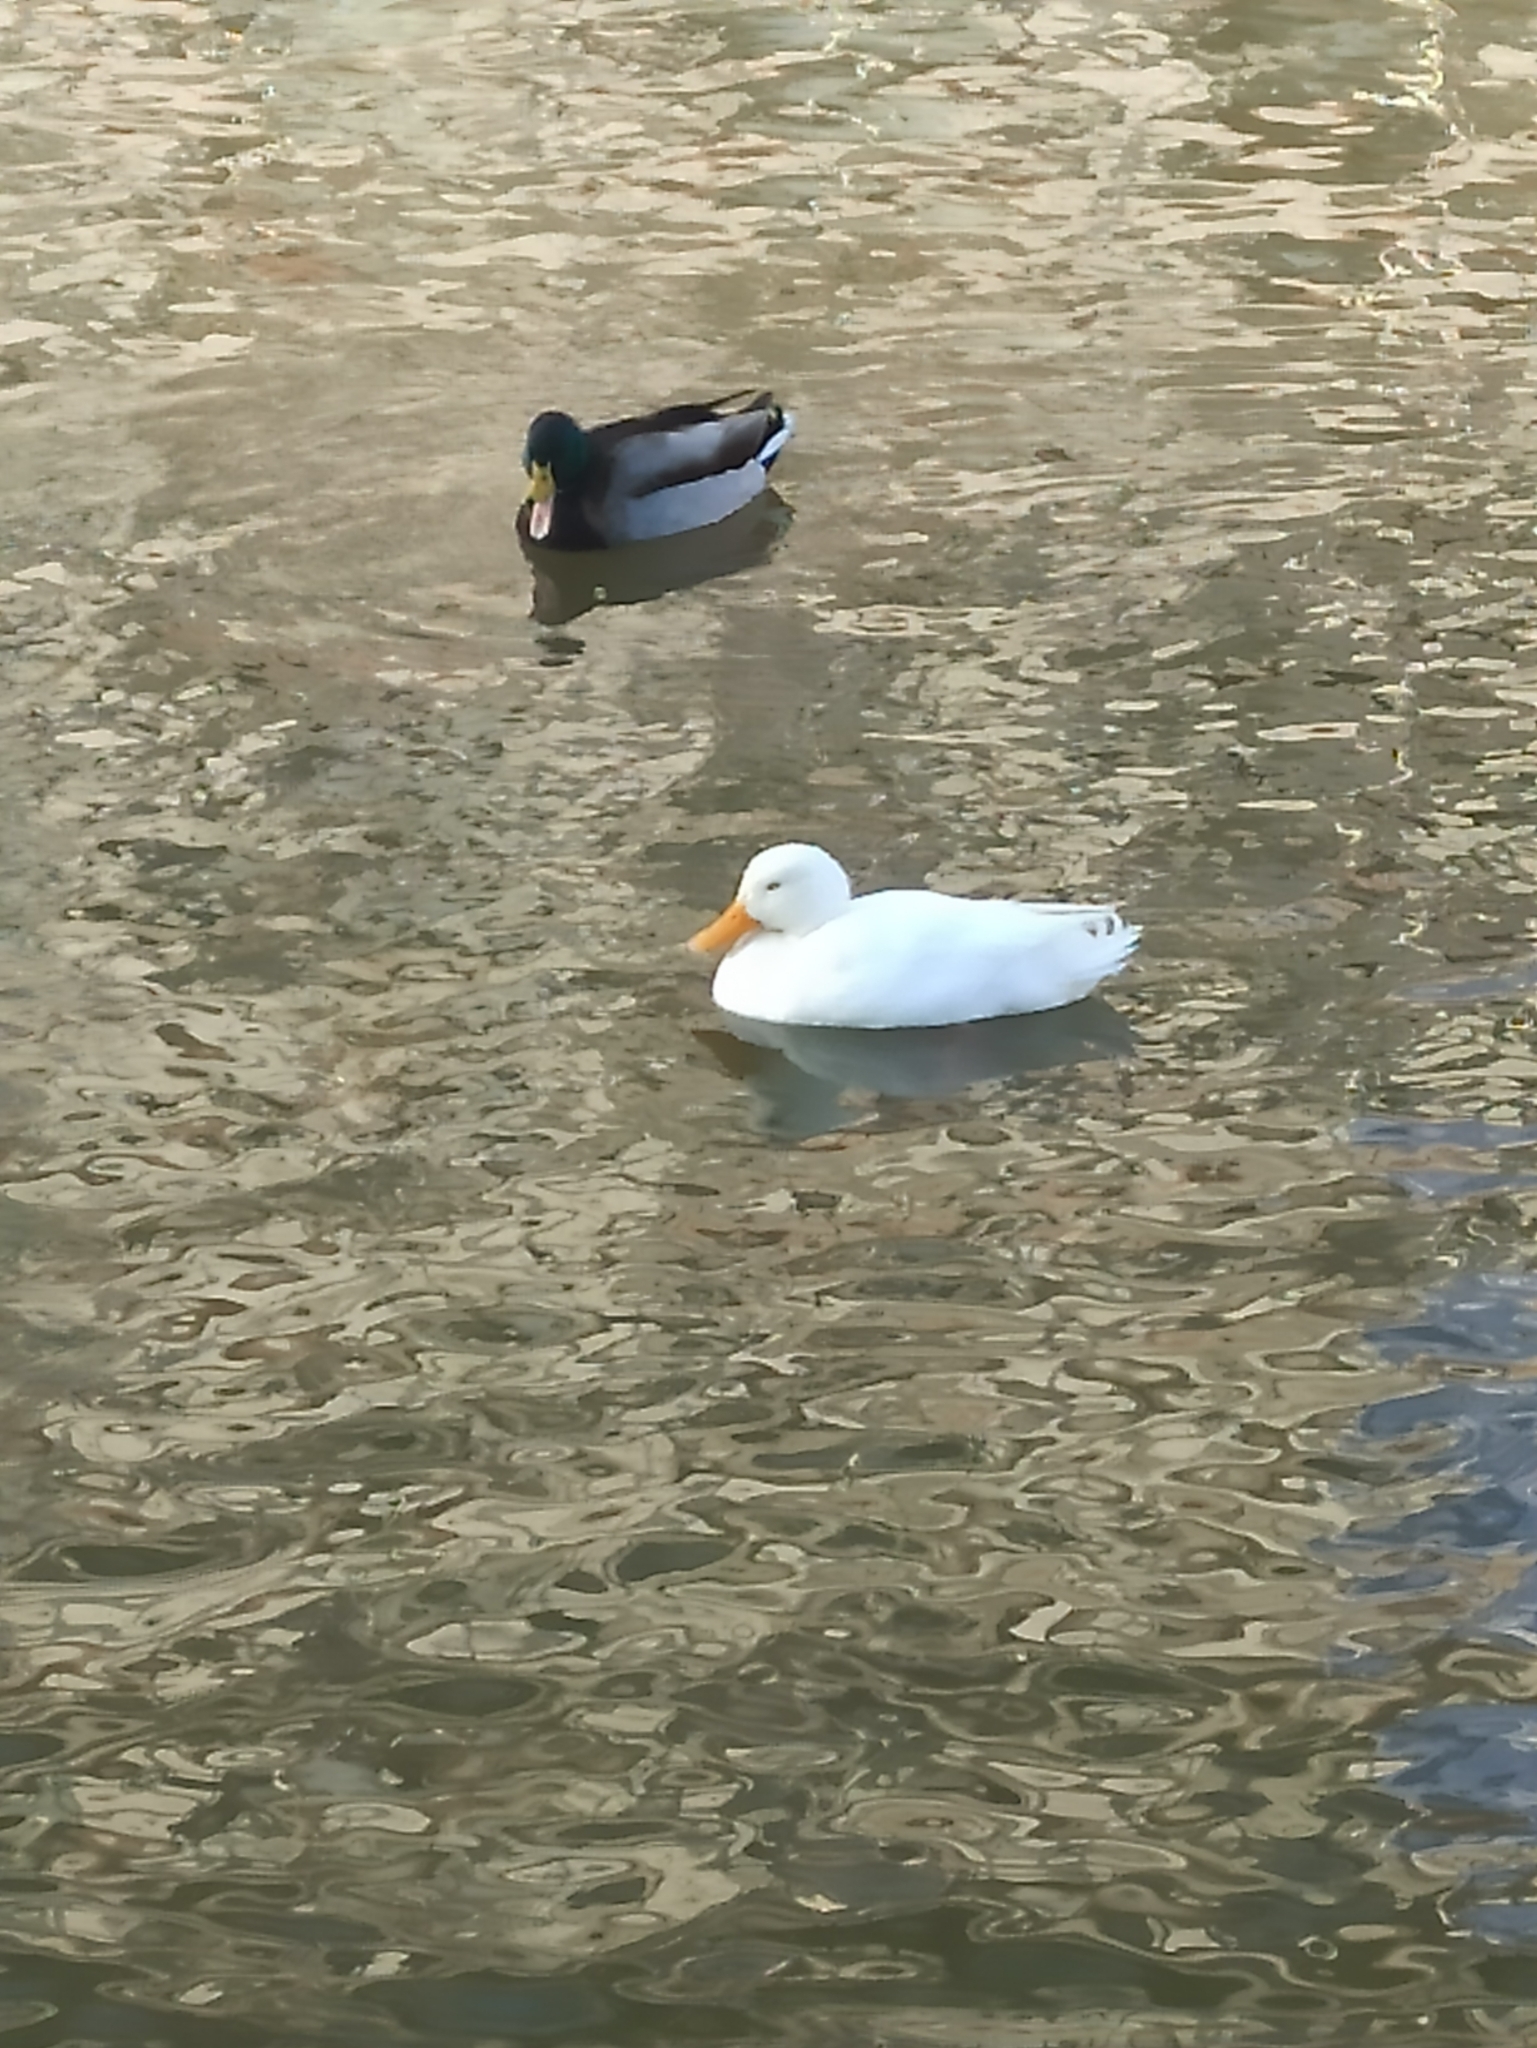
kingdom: Animalia
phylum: Chordata
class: Aves
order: Anseriformes
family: Anatidae
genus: Anas
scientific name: Anas platyrhynchos
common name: Mallard
